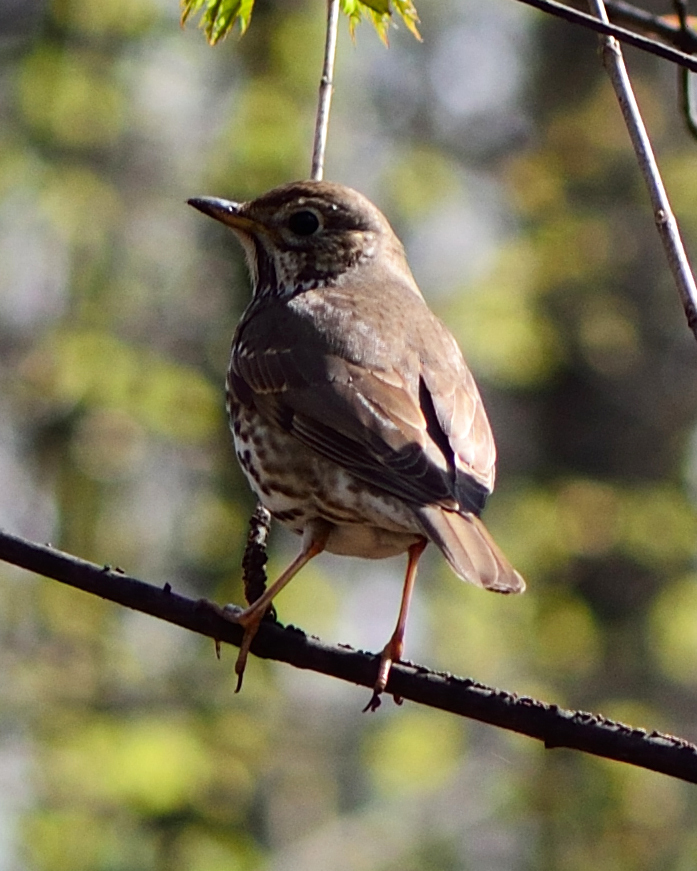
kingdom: Animalia
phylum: Chordata
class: Aves
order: Passeriformes
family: Turdidae
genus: Turdus
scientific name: Turdus philomelos
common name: Song thrush
